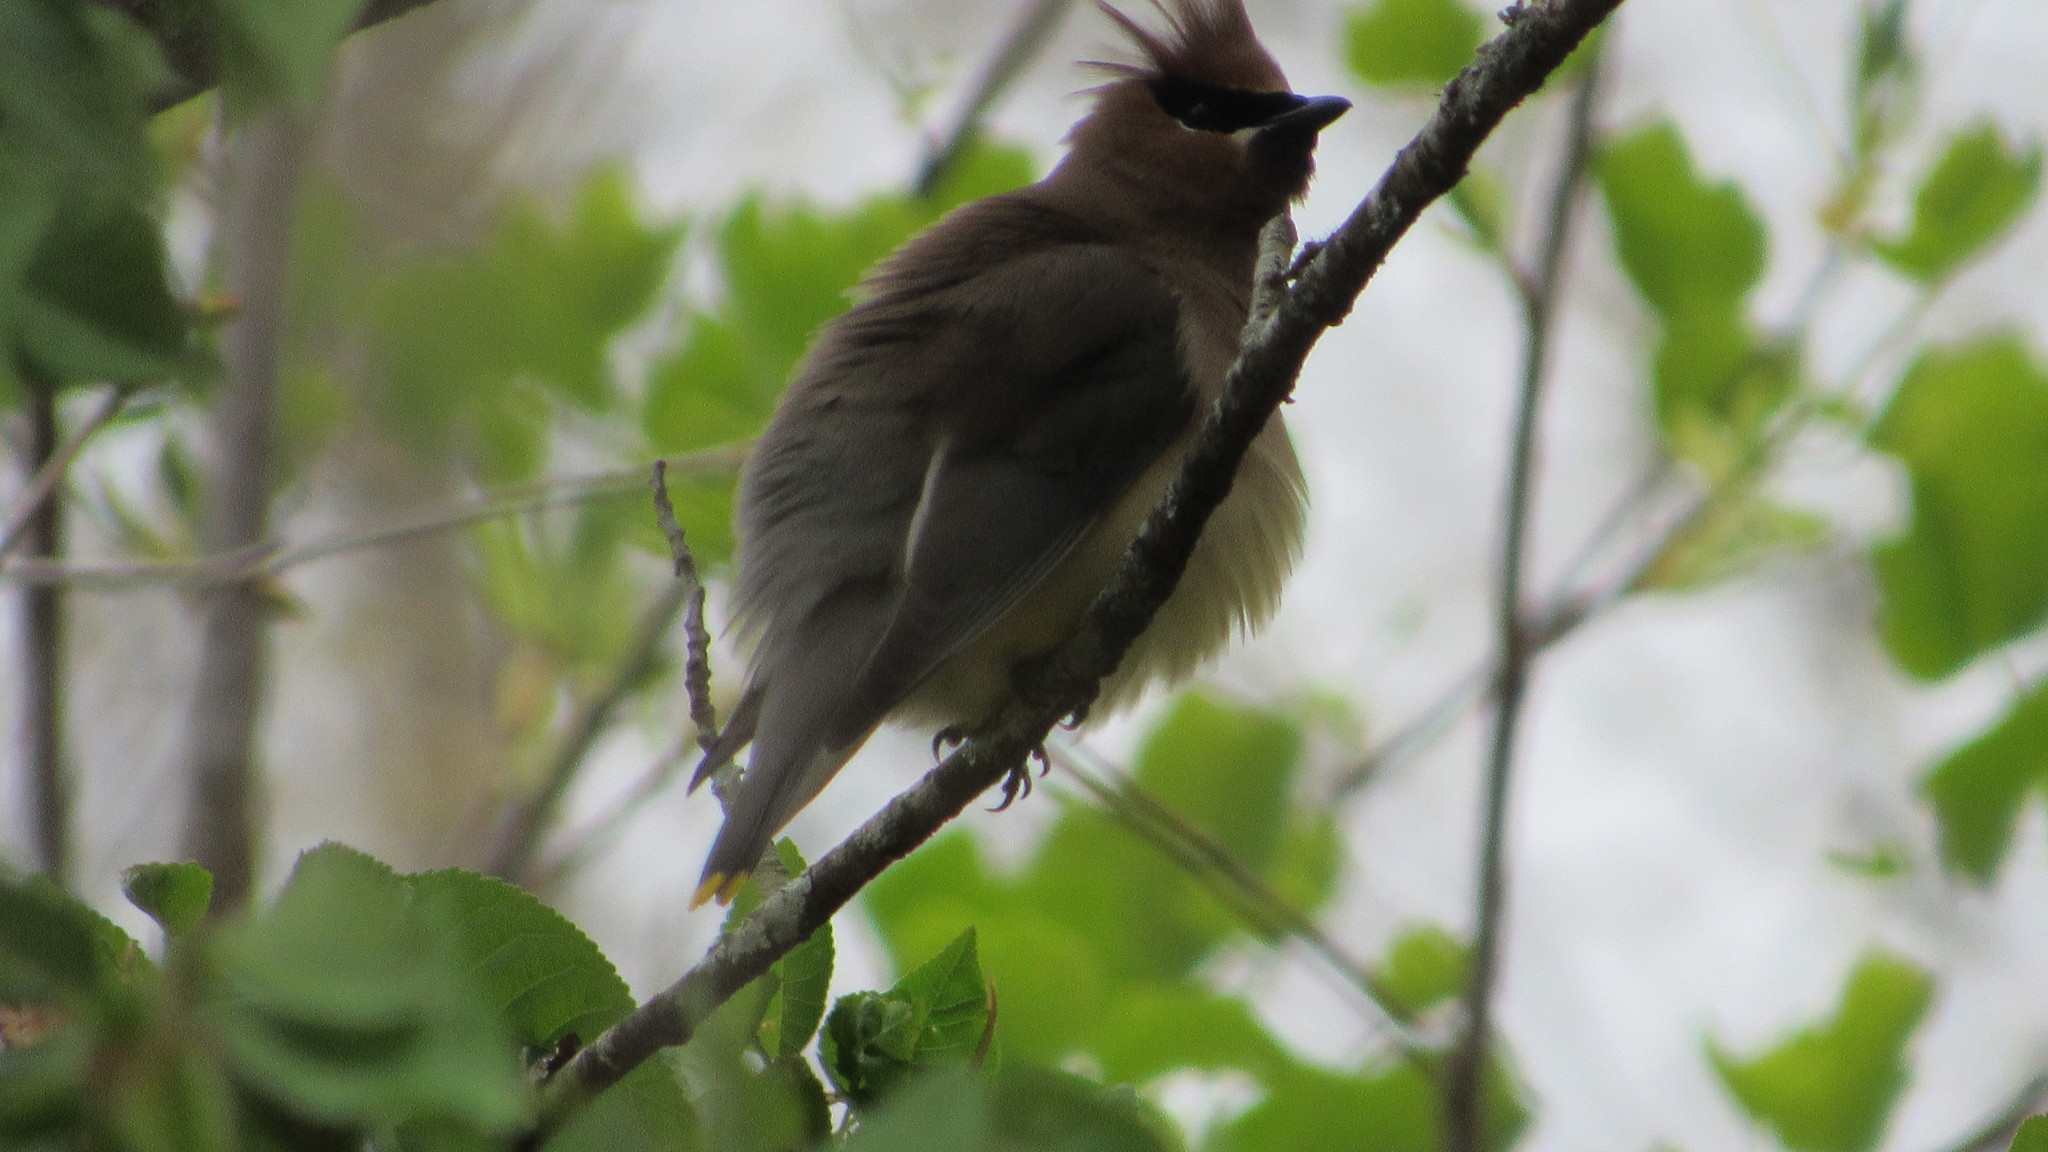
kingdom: Animalia
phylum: Chordata
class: Aves
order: Passeriformes
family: Bombycillidae
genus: Bombycilla
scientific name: Bombycilla cedrorum
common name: Cedar waxwing
